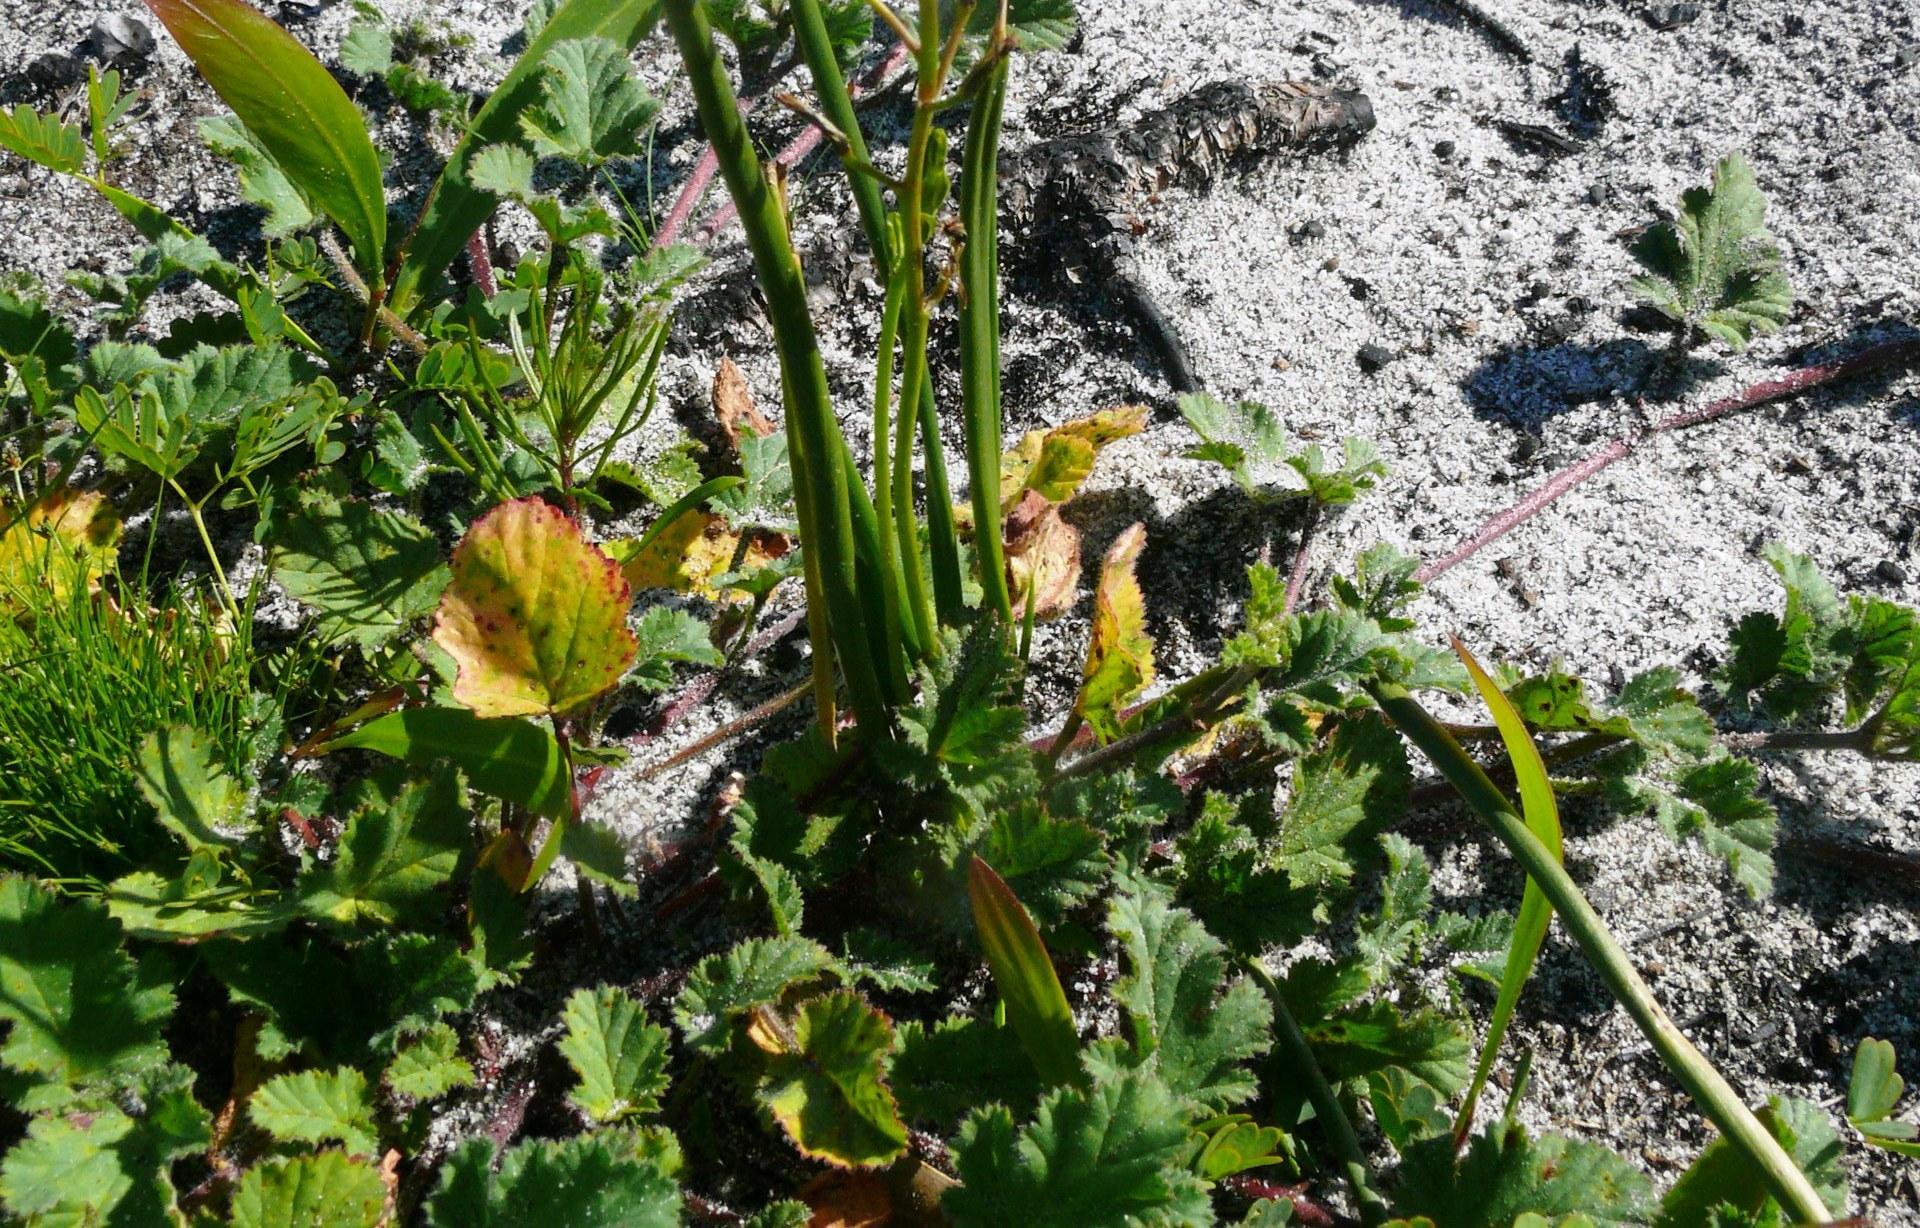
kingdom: Plantae
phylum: Tracheophyta
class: Magnoliopsida
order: Geraniales
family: Geraniaceae
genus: Pelargonium
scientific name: Pelargonium capitatum
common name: Rose scented geranium
